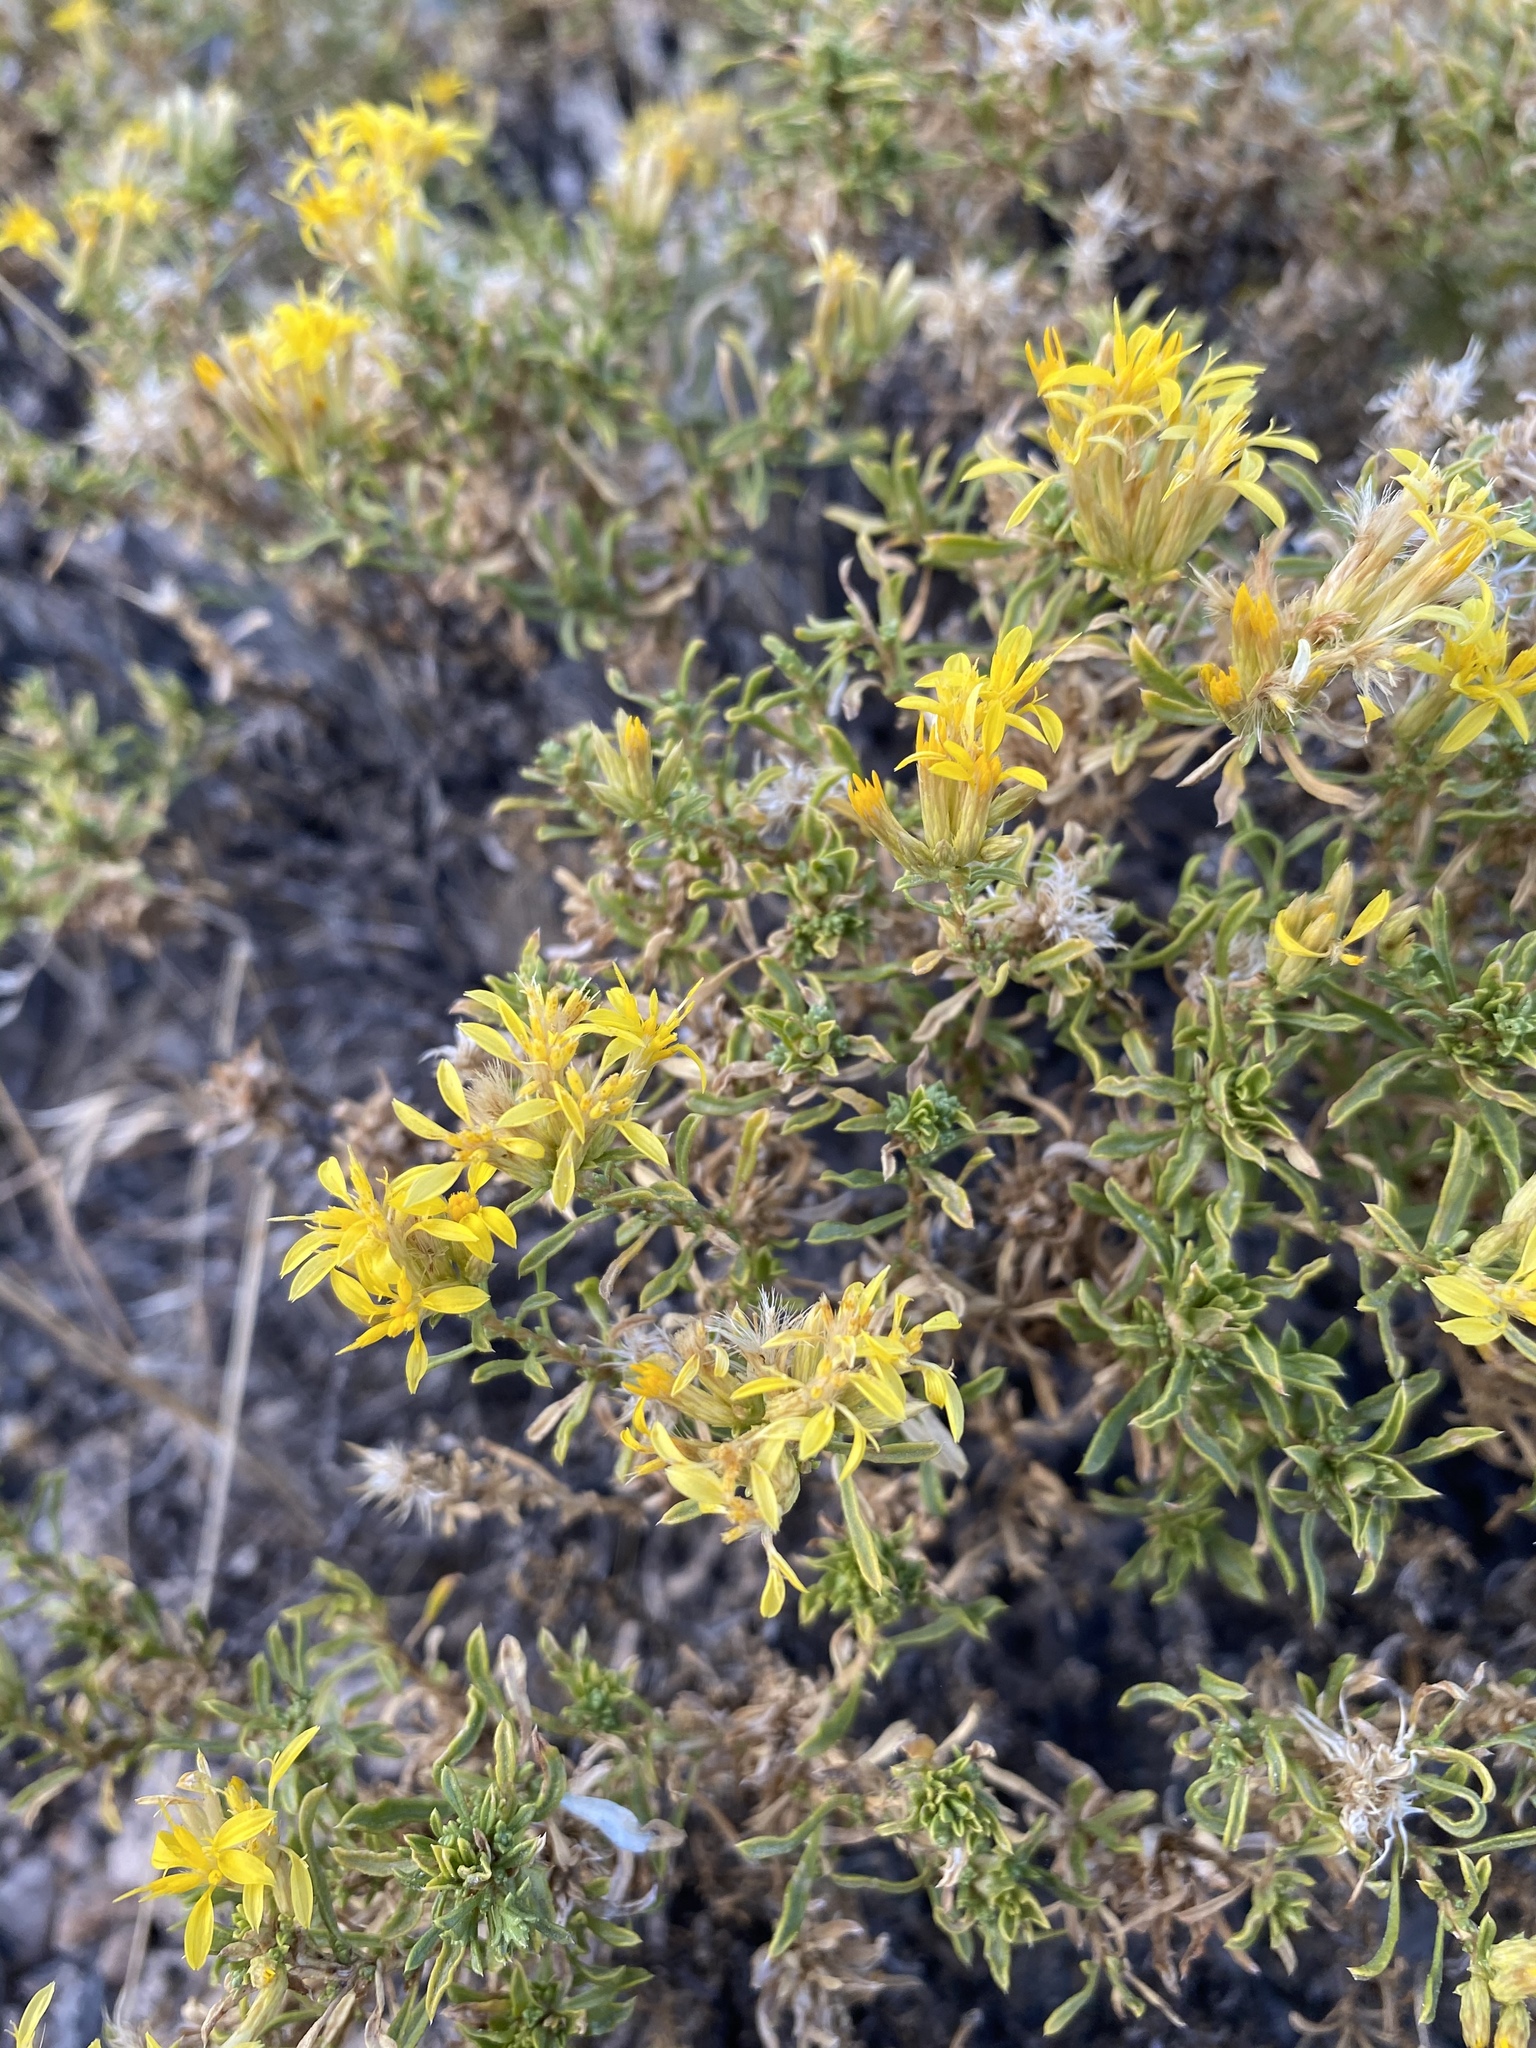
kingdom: Plantae
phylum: Tracheophyta
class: Magnoliopsida
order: Asterales
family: Asteraceae
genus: Ericameria
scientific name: Ericameria nana
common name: Dwarf goldenbush
